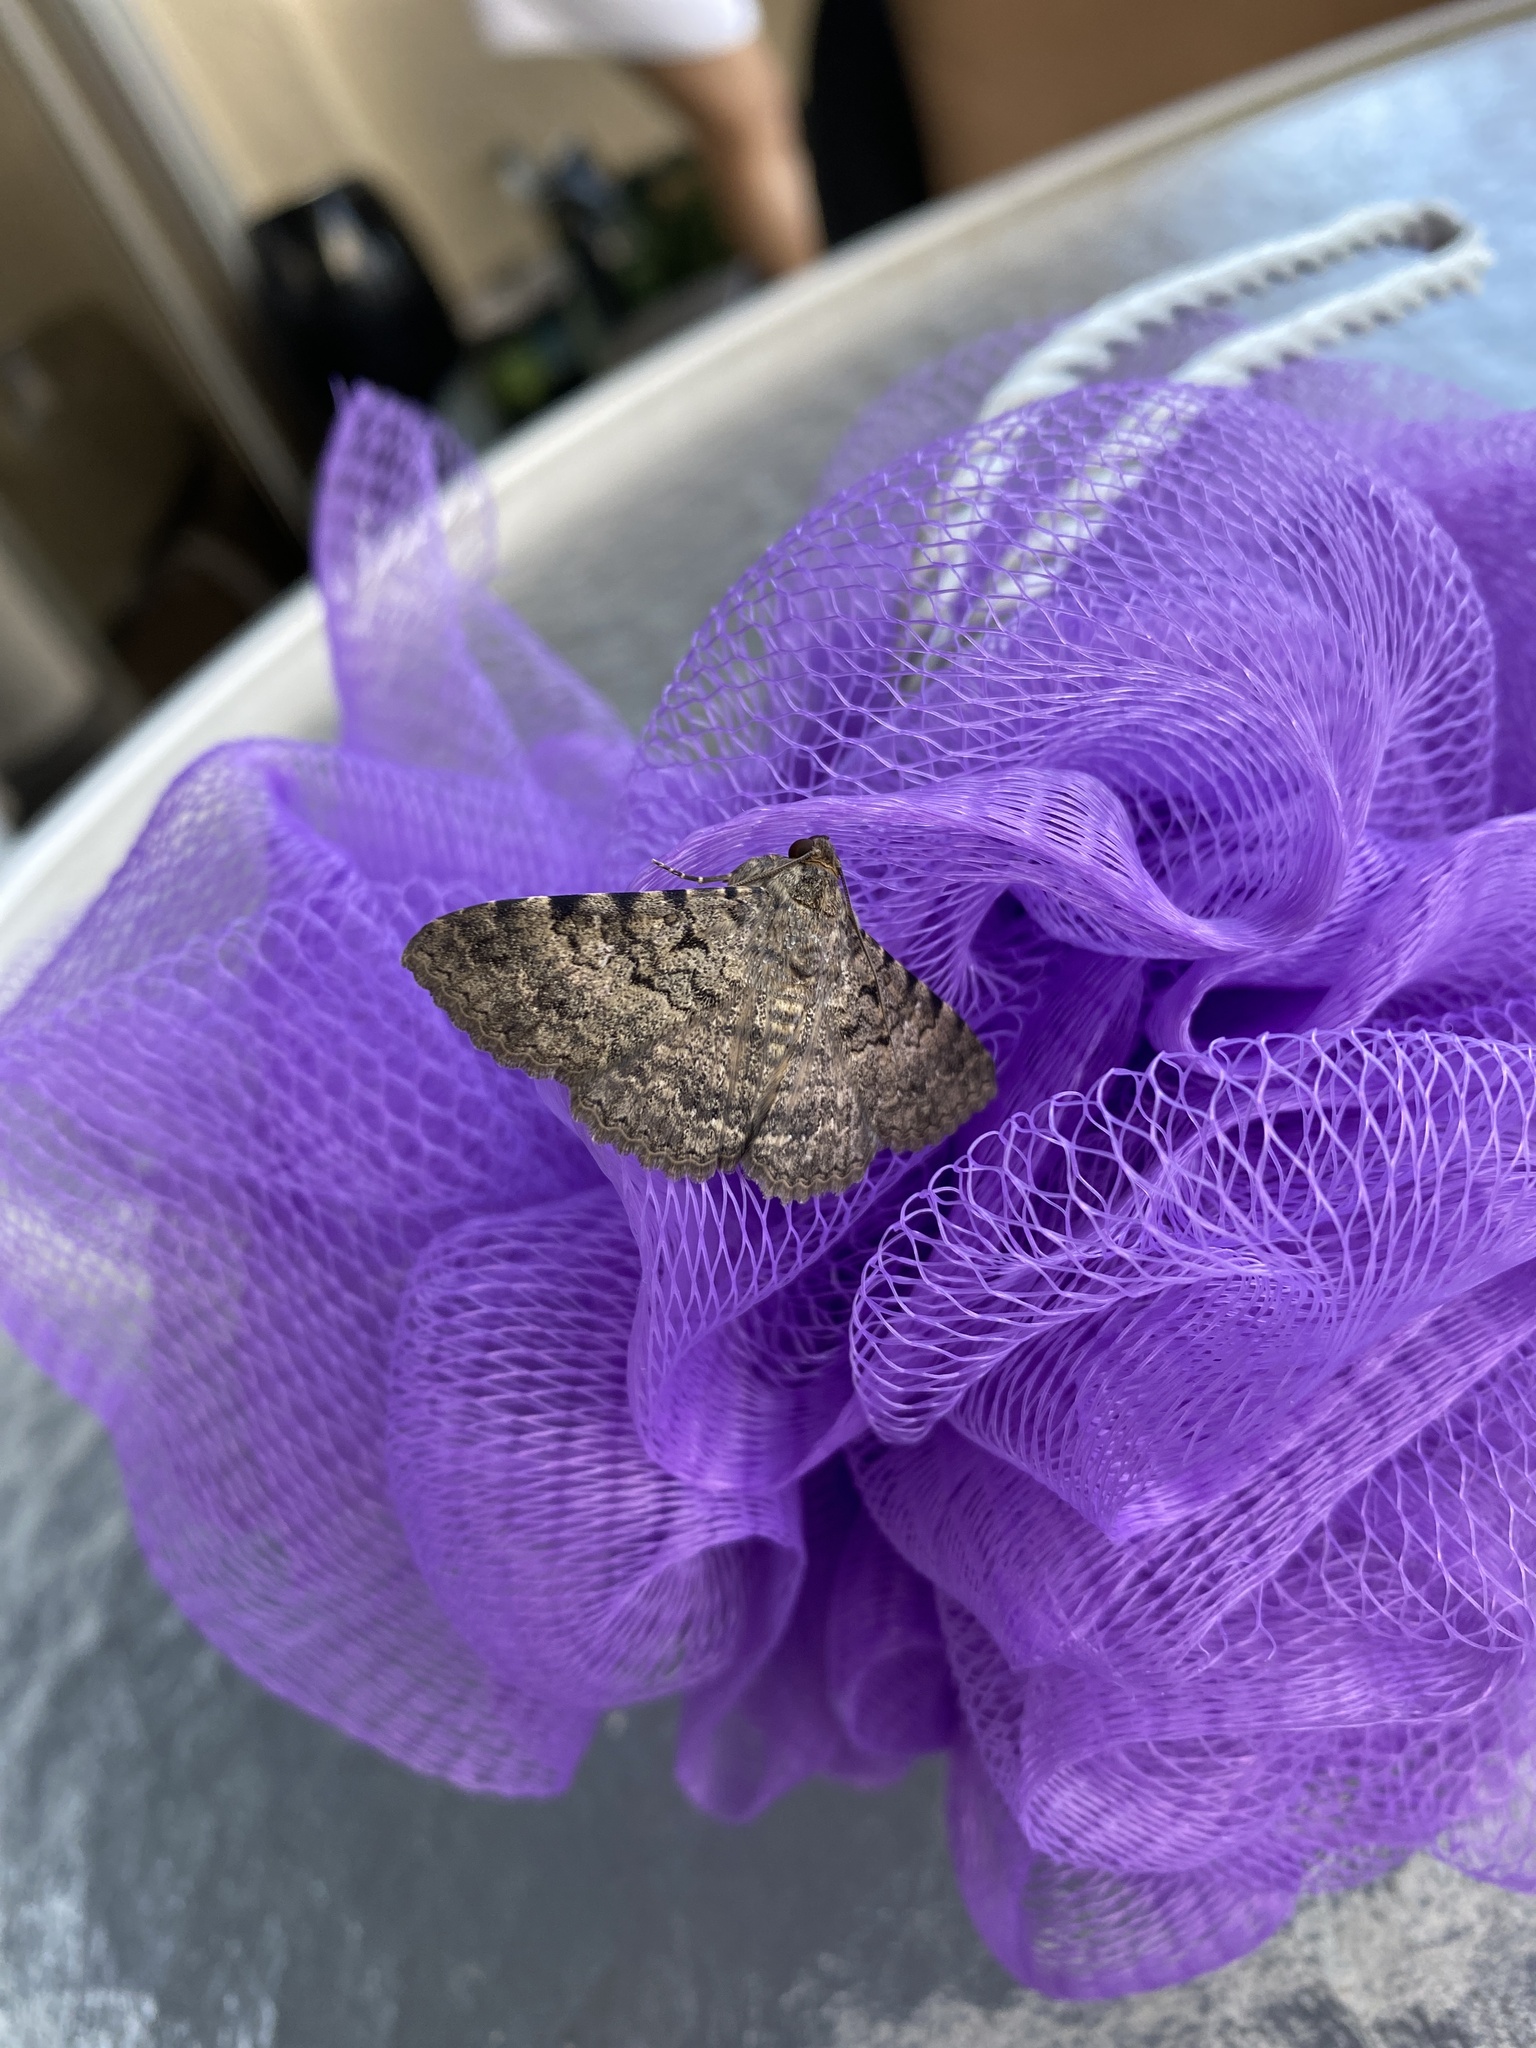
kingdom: Animalia
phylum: Arthropoda
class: Insecta
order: Lepidoptera
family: Erebidae
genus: Polydesma
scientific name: Polydesma boarmoides
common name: Moth
